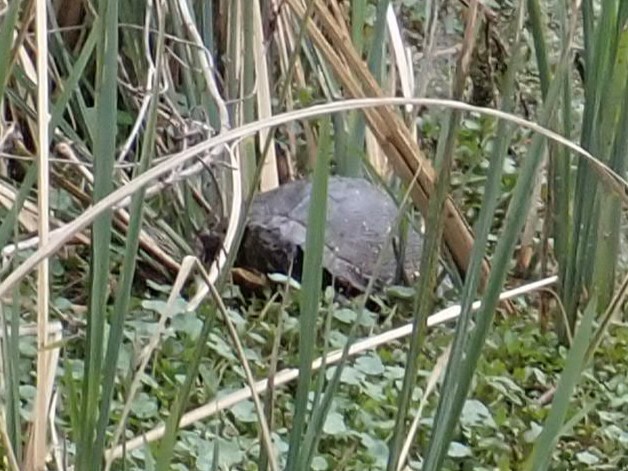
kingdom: Animalia
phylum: Chordata
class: Testudines
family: Emydidae
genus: Trachemys
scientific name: Trachemys scripta
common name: Slider
